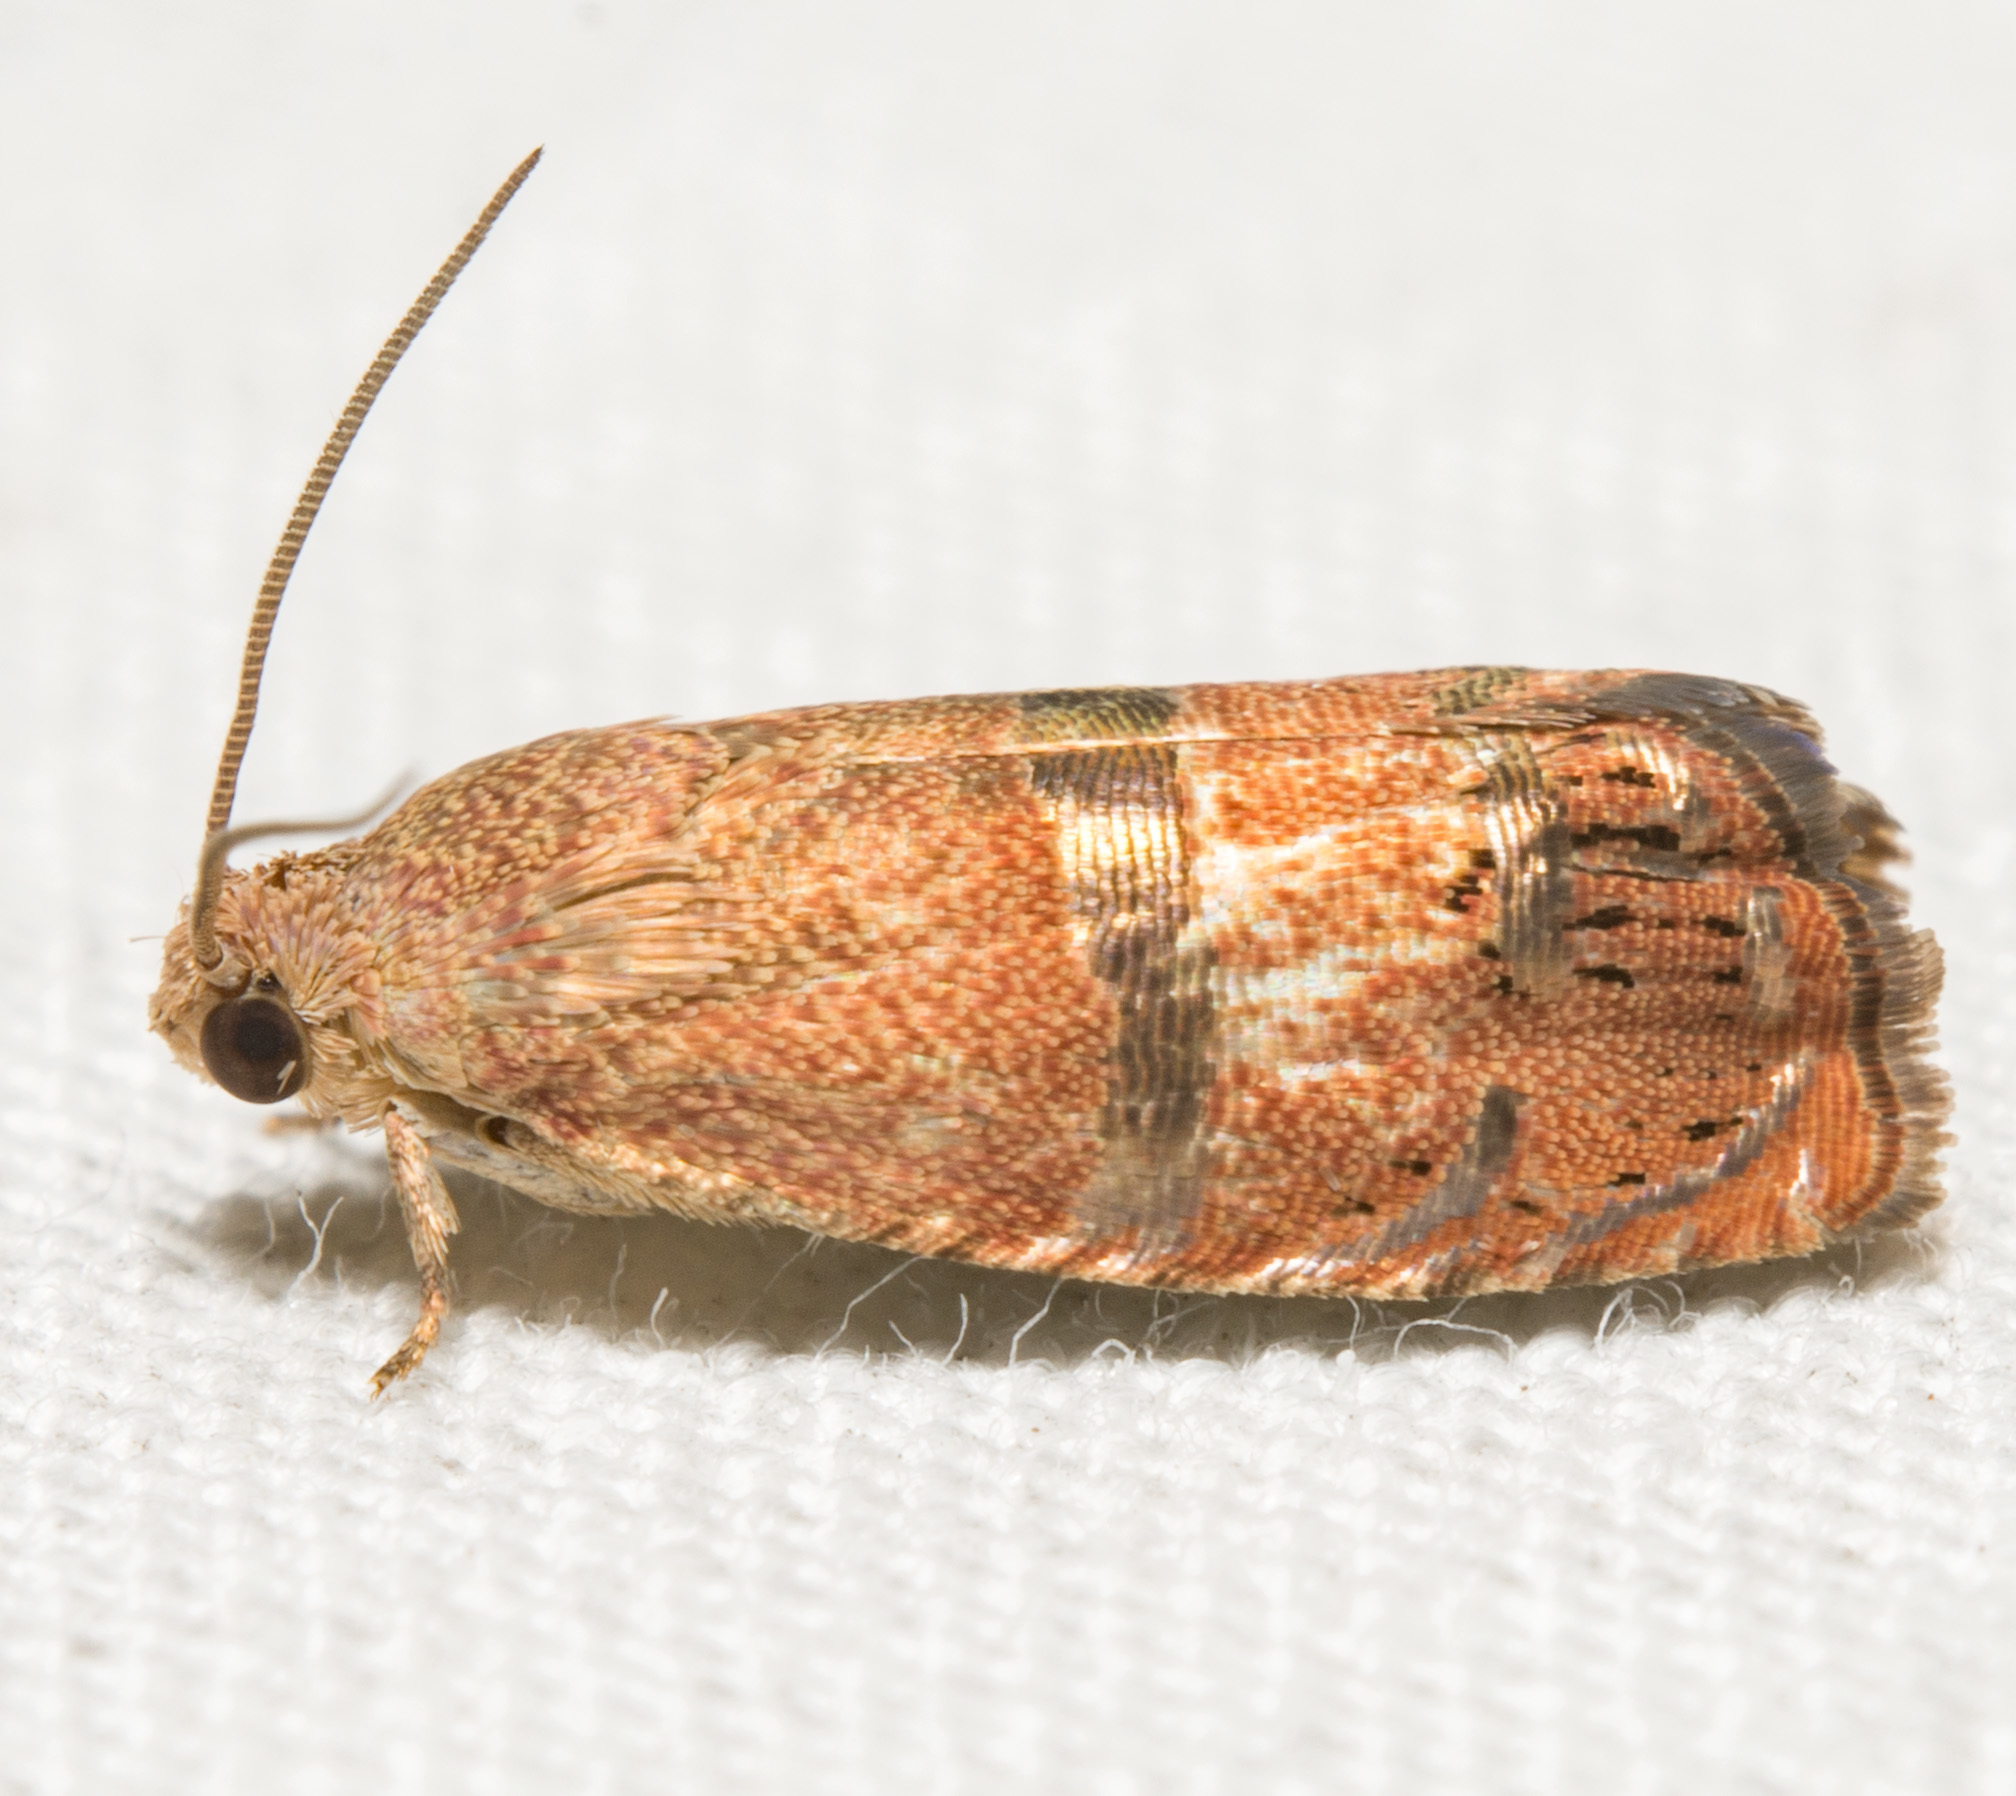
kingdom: Animalia
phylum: Arthropoda
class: Insecta
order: Lepidoptera
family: Tortricidae
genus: Cydia
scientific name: Cydia latiferreana
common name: Filbertworm moth
